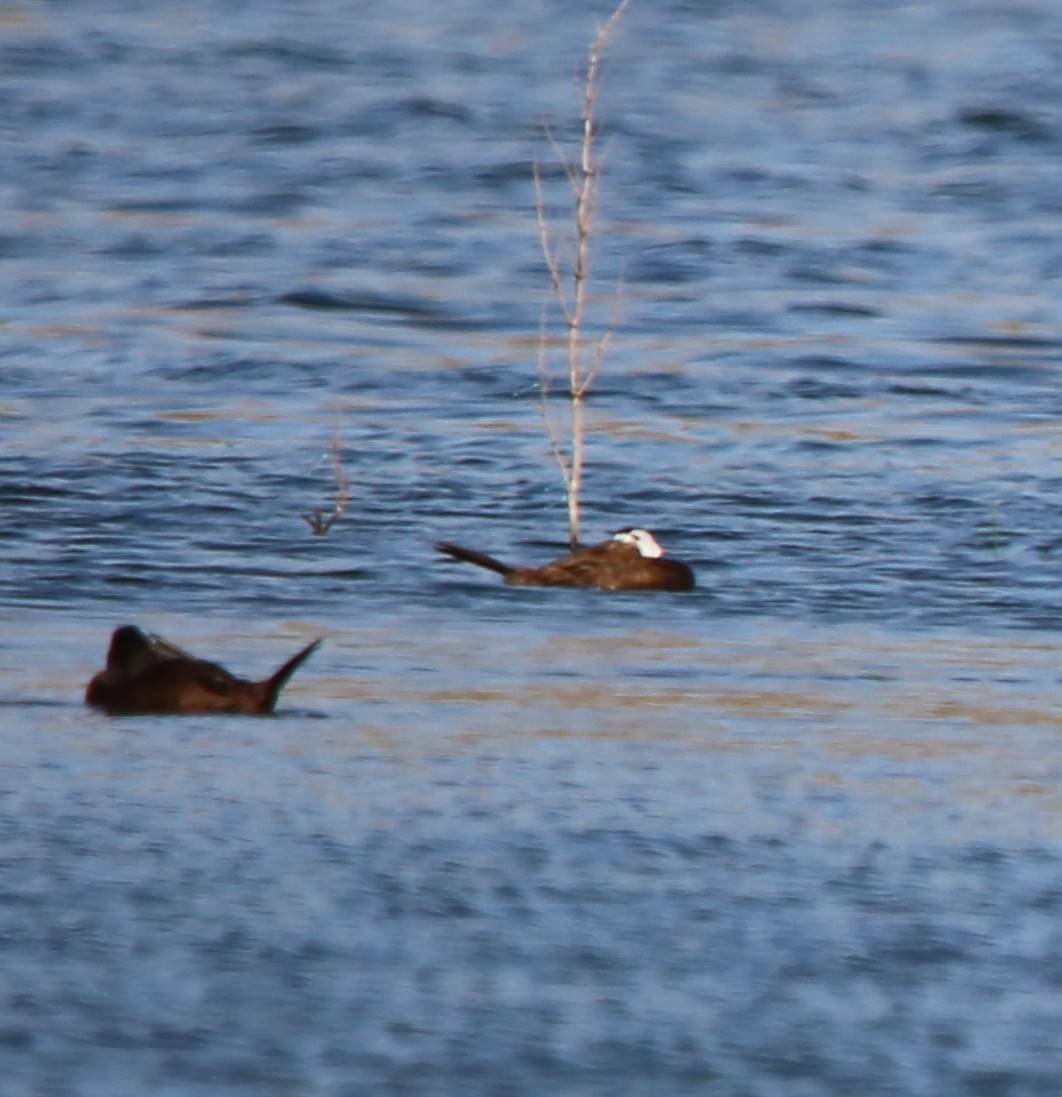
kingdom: Animalia
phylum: Chordata
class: Aves
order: Anseriformes
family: Anatidae
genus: Oxyura
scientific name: Oxyura leucocephala
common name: White-headed duck
